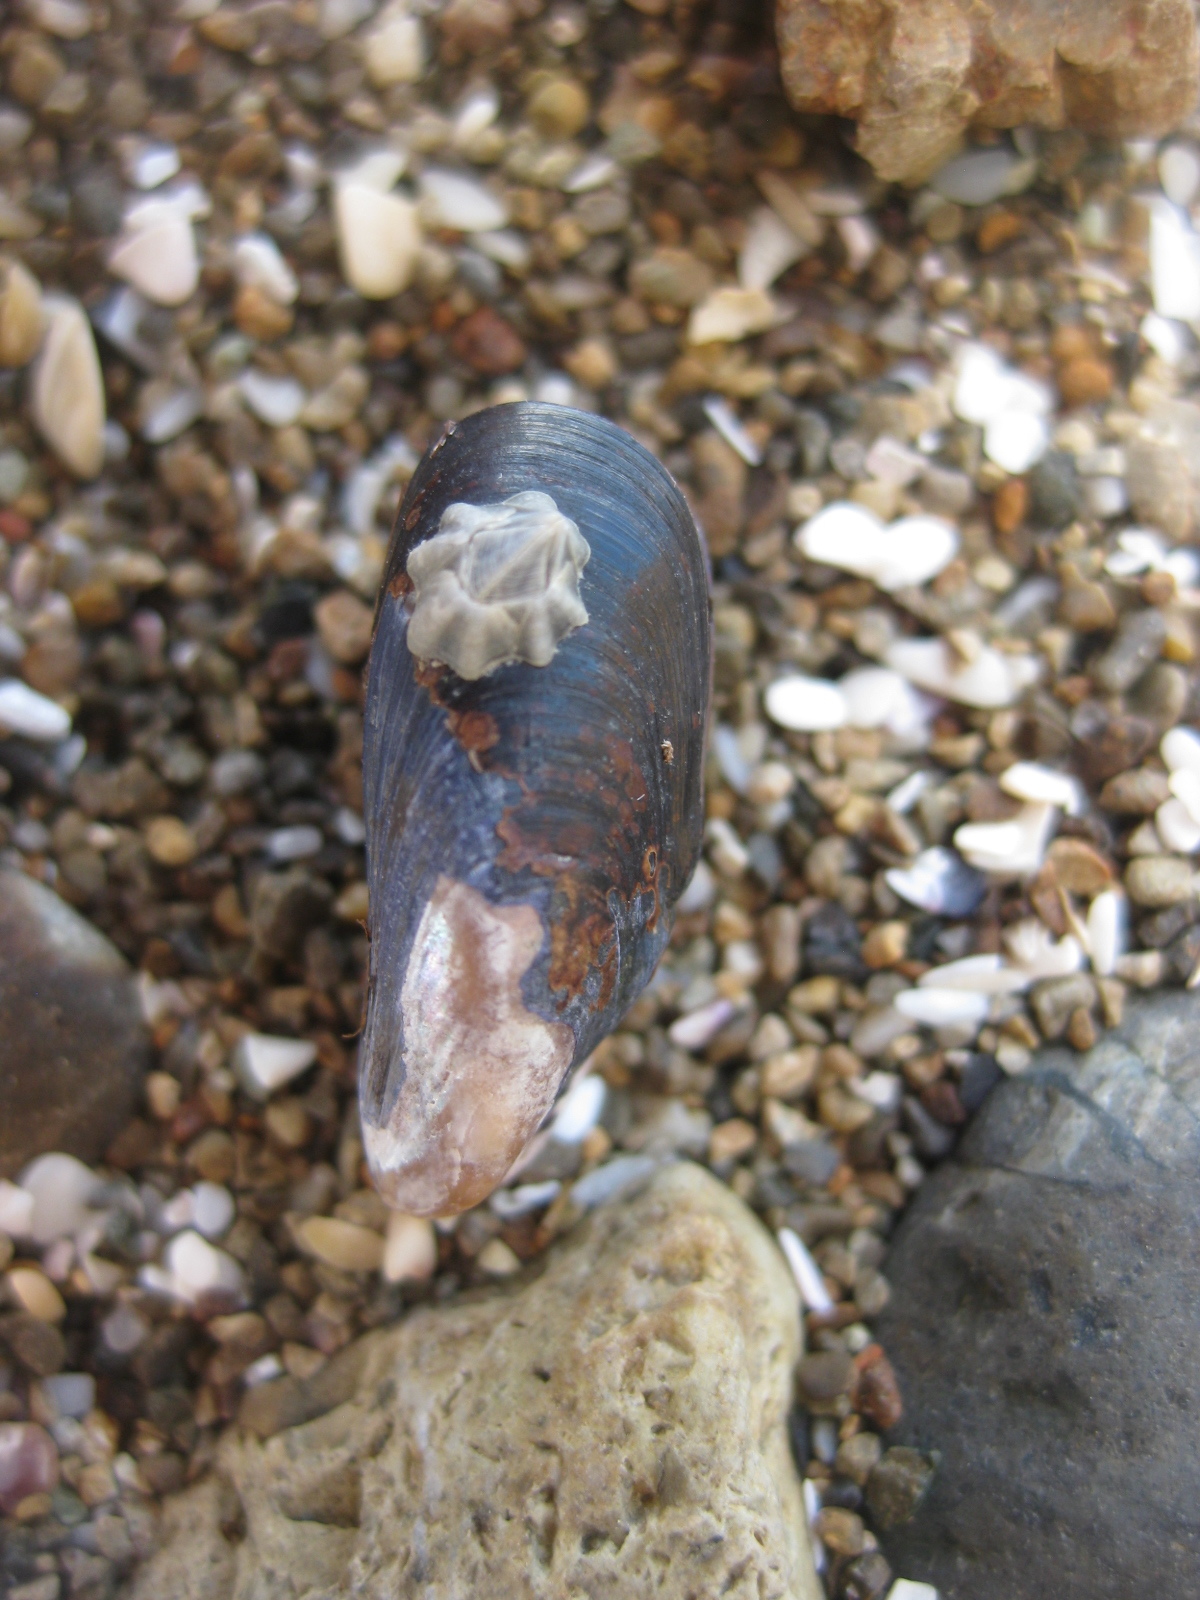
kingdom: Animalia
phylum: Mollusca
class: Bivalvia
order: Mytilida
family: Mytilidae
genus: Xenostrobus
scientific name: Xenostrobus neozelanicus
